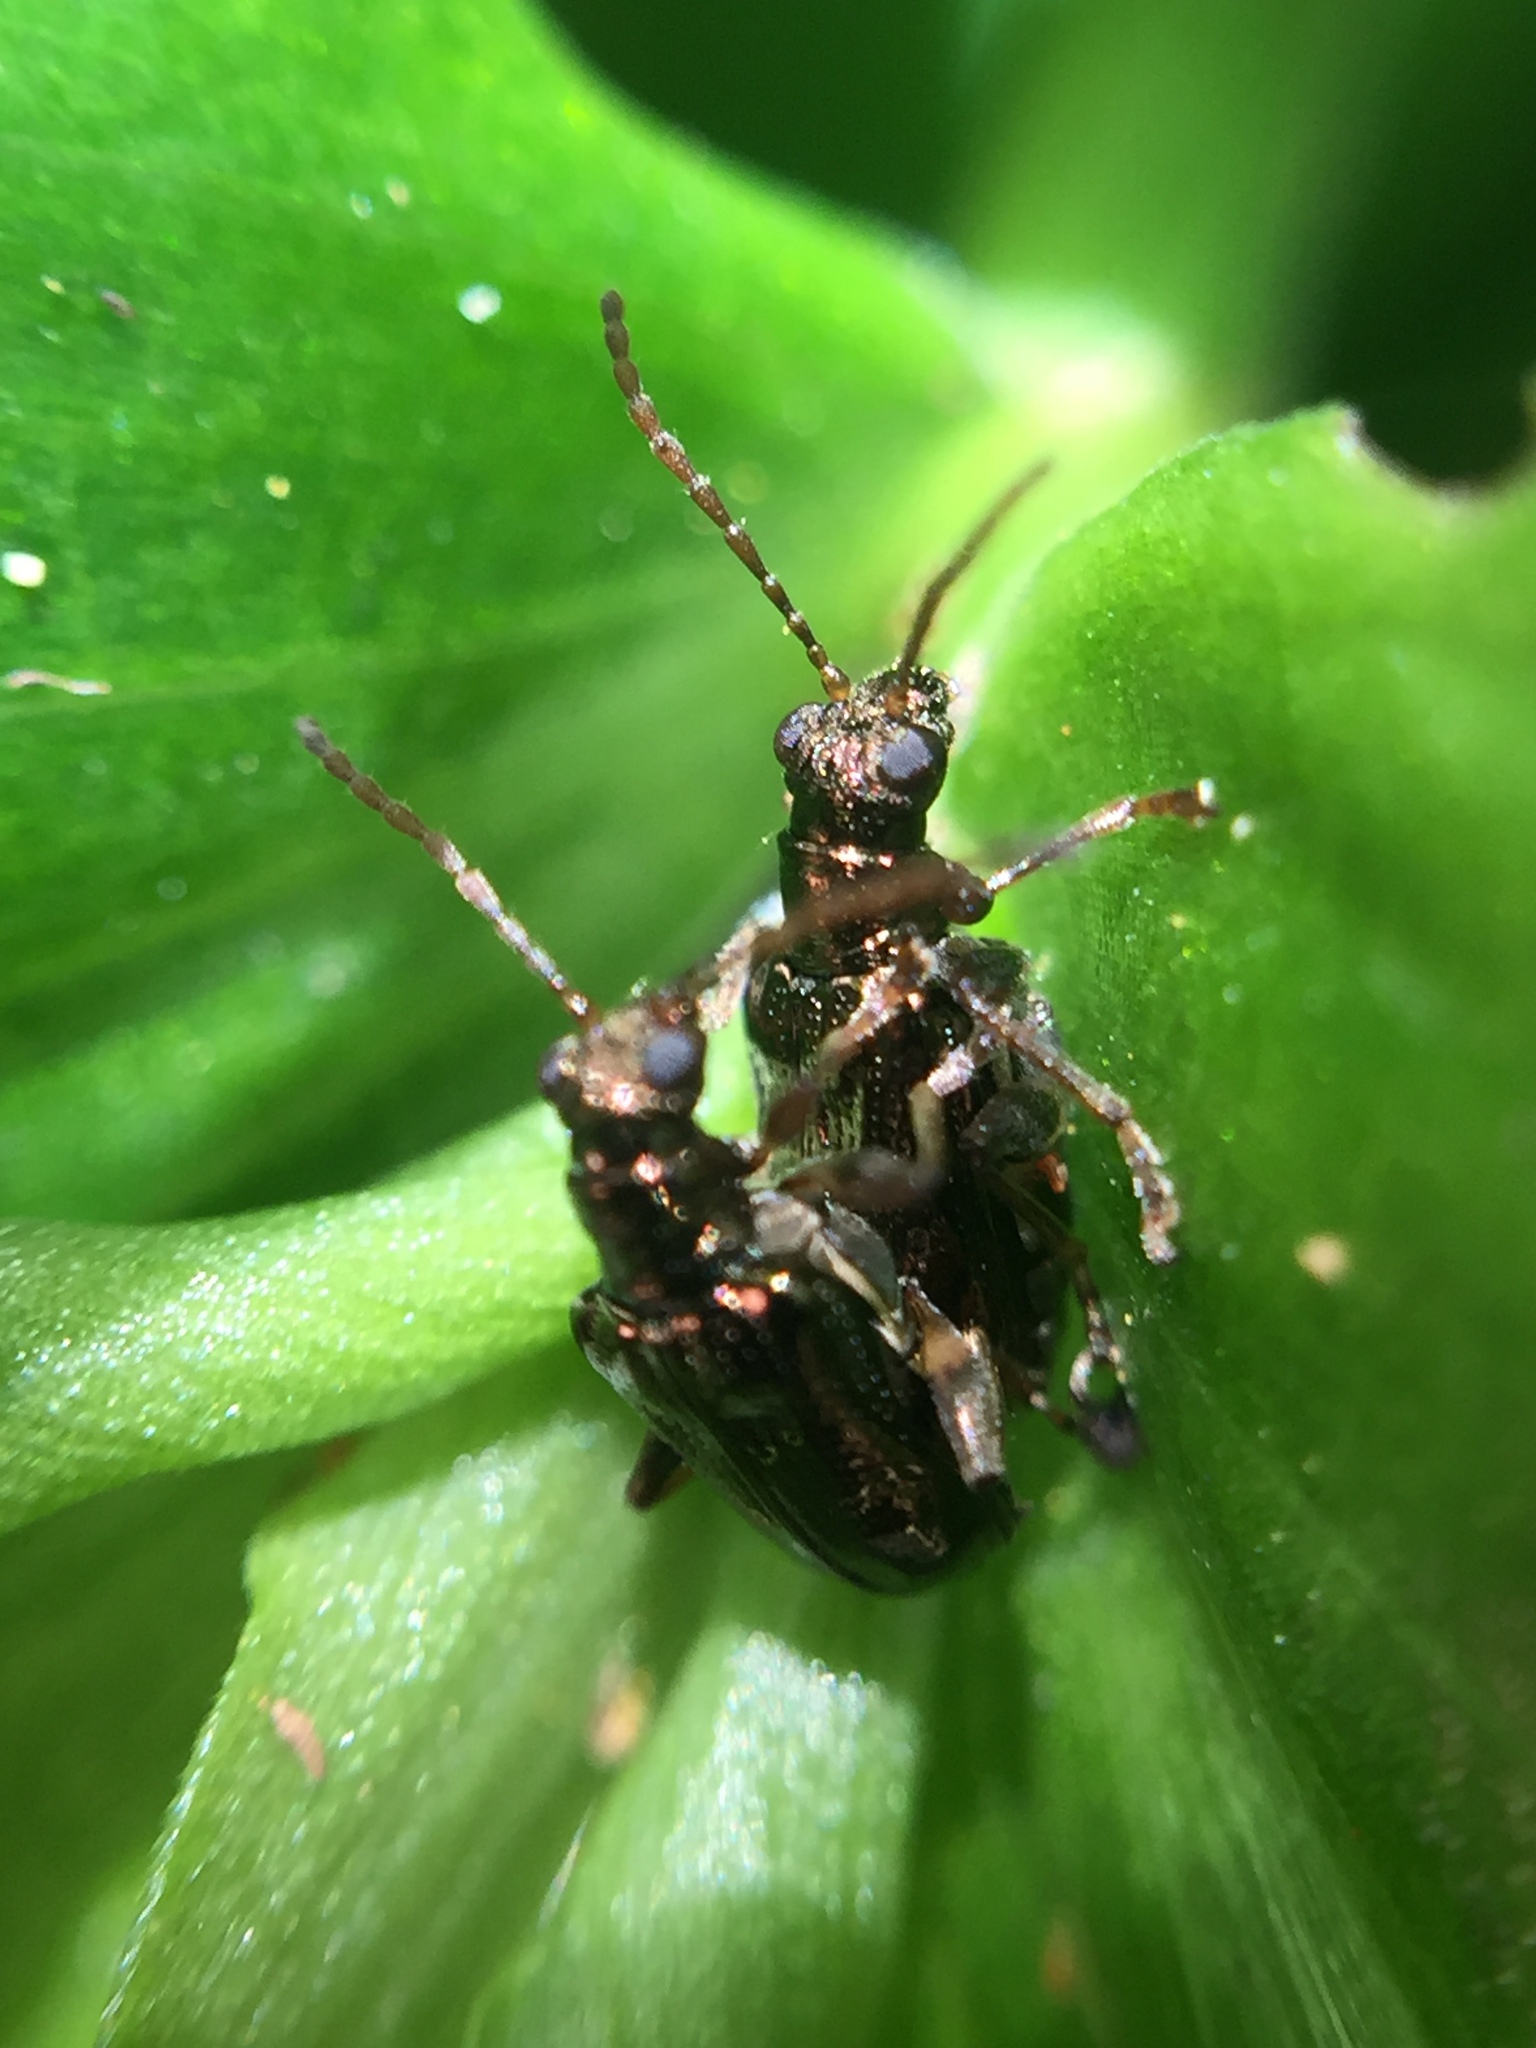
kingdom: Animalia
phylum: Arthropoda
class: Insecta
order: Coleoptera
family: Chrysomelidae
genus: Neolema
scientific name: Neolema ogloblini
